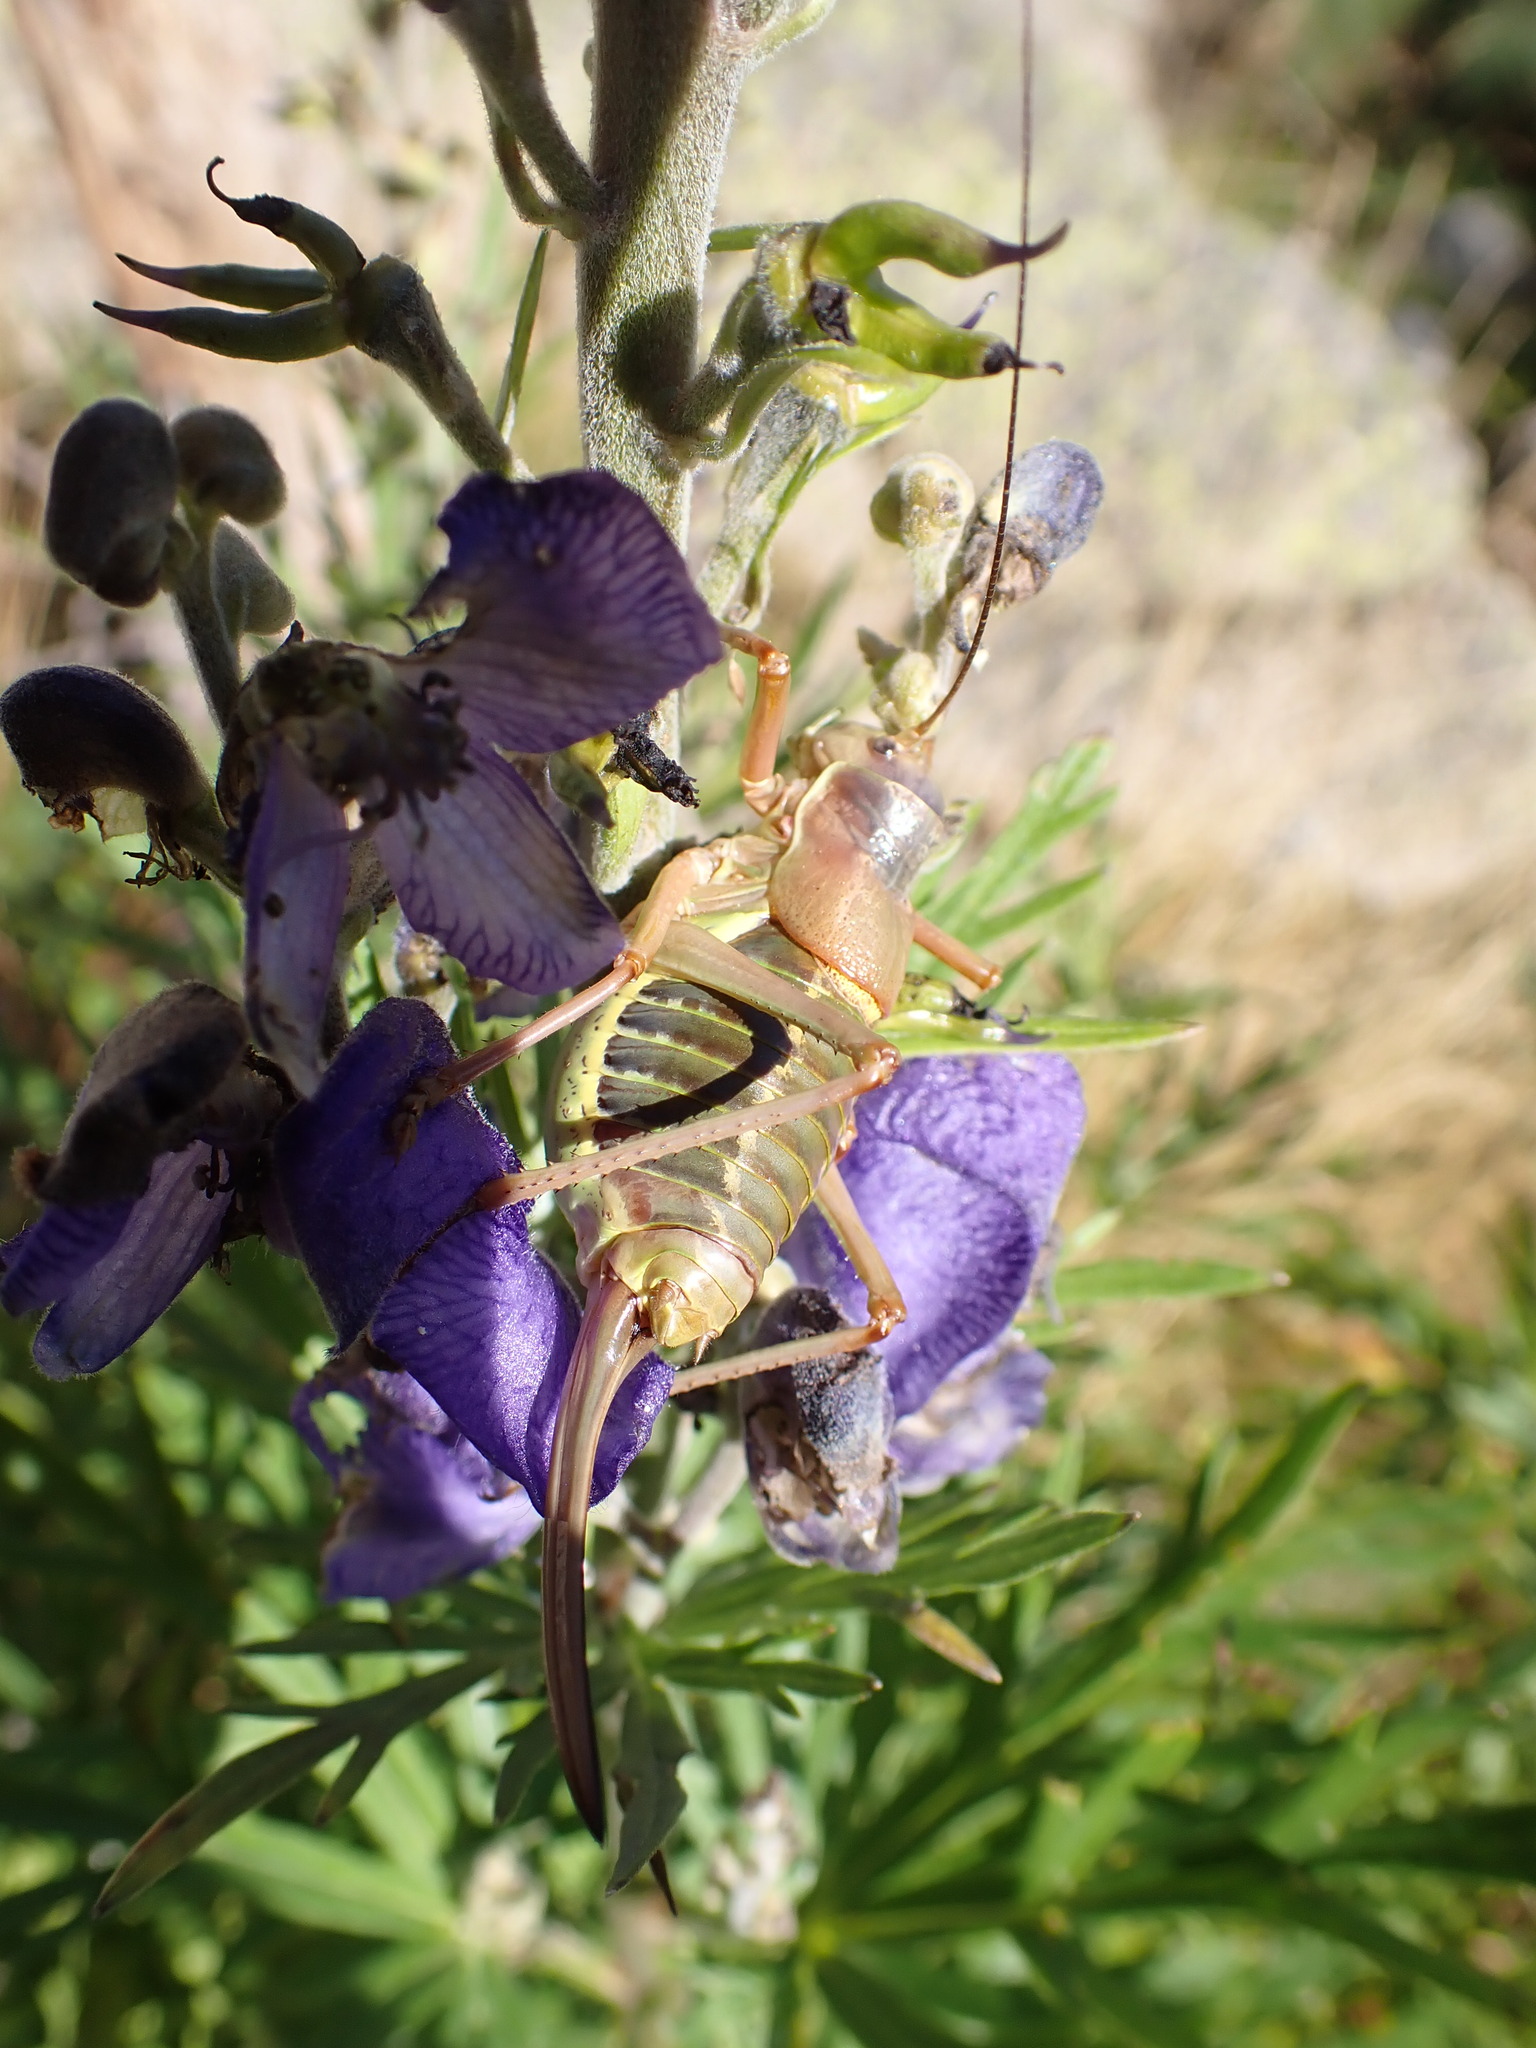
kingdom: Animalia
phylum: Arthropoda
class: Insecta
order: Orthoptera
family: Tettigoniidae
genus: Ephippiger
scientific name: Ephippiger diurnus
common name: Western saddle bush-cricket
